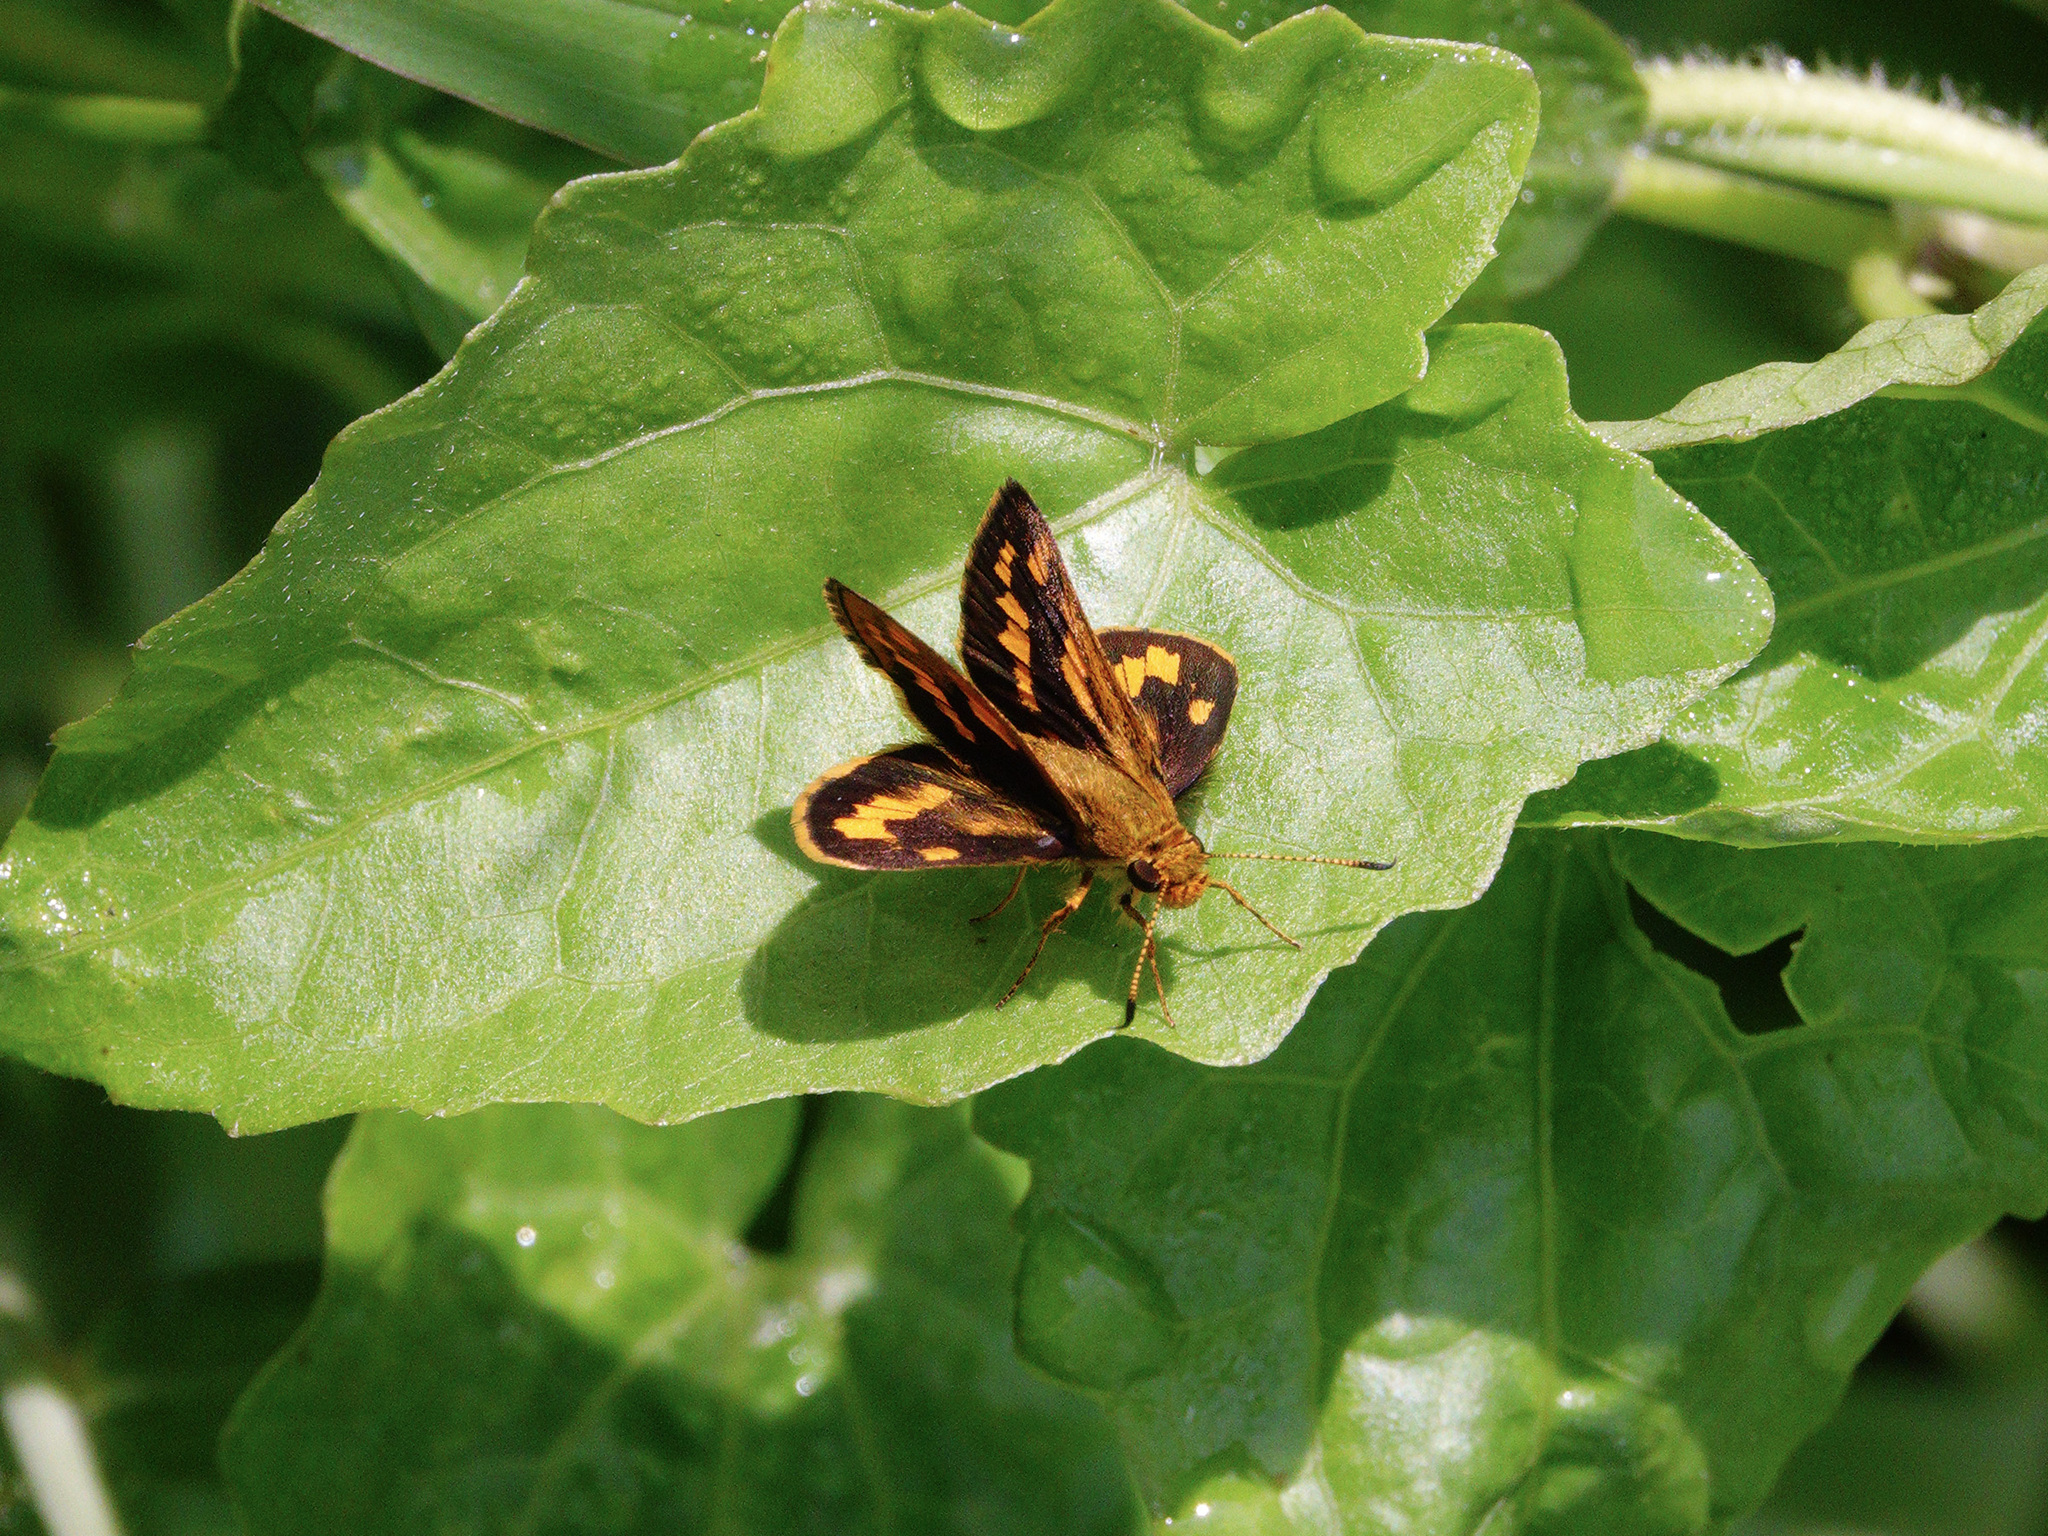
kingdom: Animalia
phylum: Arthropoda
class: Insecta
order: Lepidoptera
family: Hesperiidae
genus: Potanthus
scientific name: Potanthus omaha
